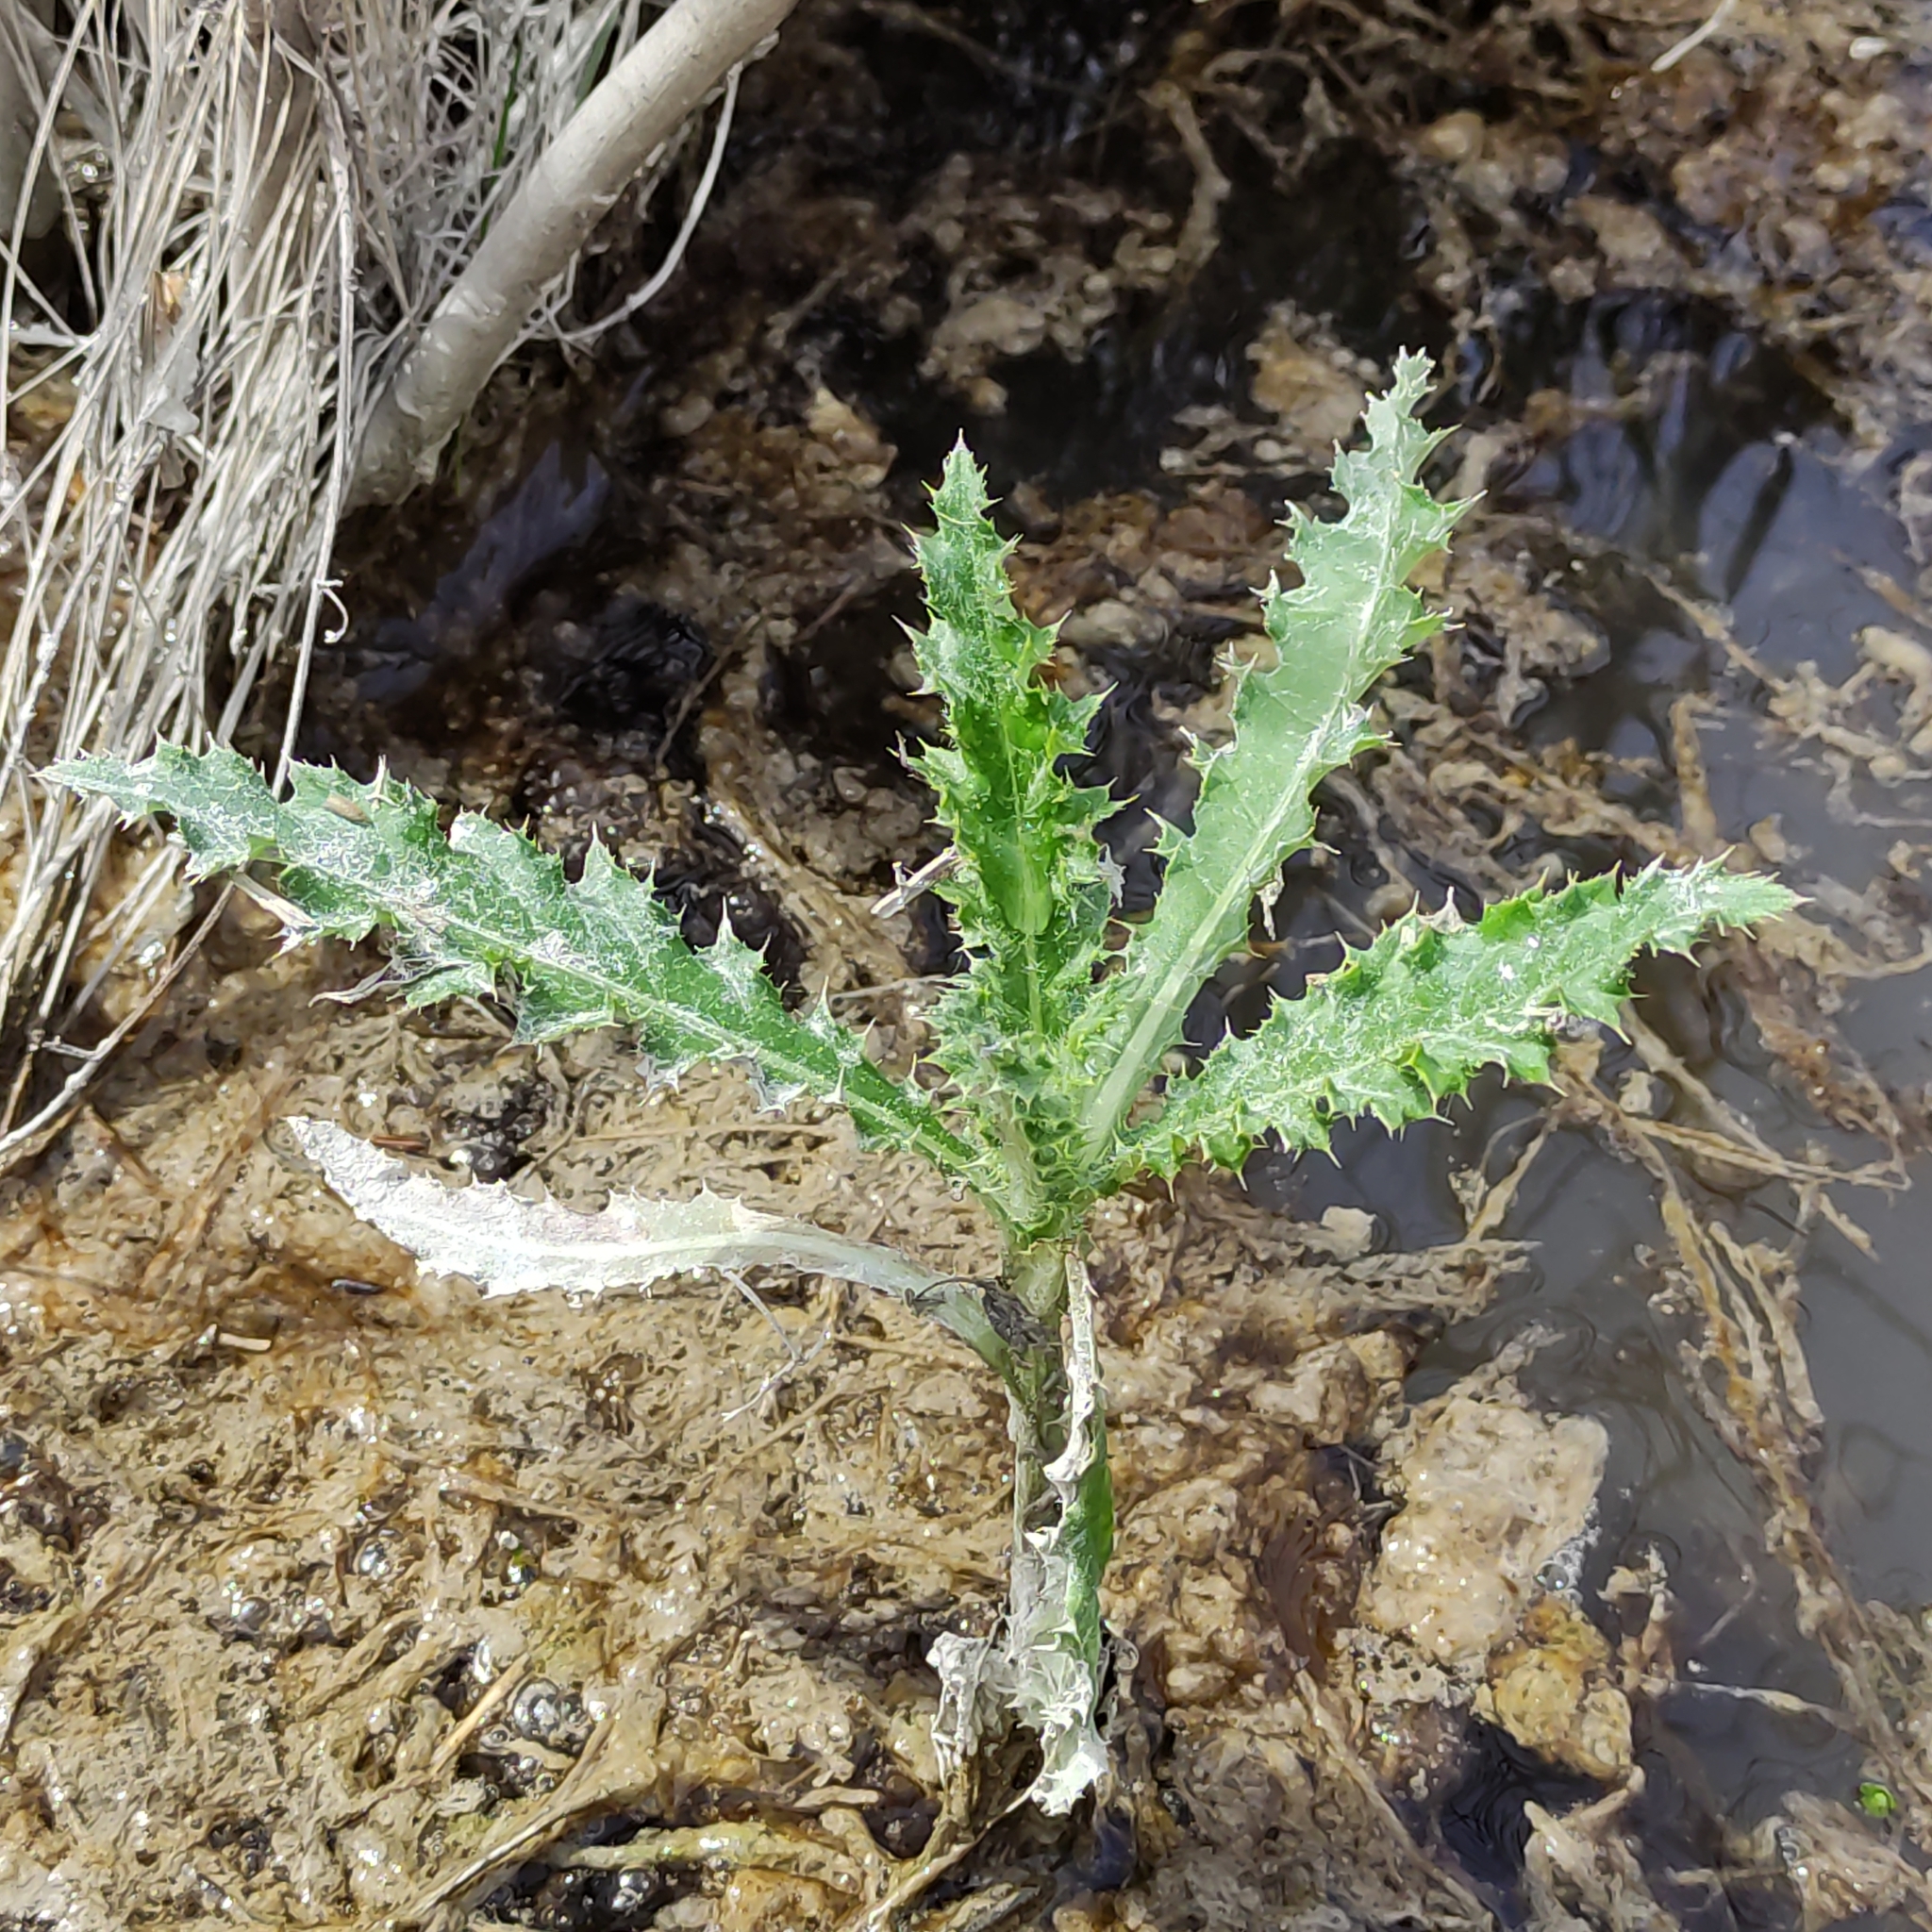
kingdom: Plantae
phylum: Tracheophyta
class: Magnoliopsida
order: Asterales
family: Asteraceae
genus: Cirsium
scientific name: Cirsium arvense
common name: Creeping thistle
